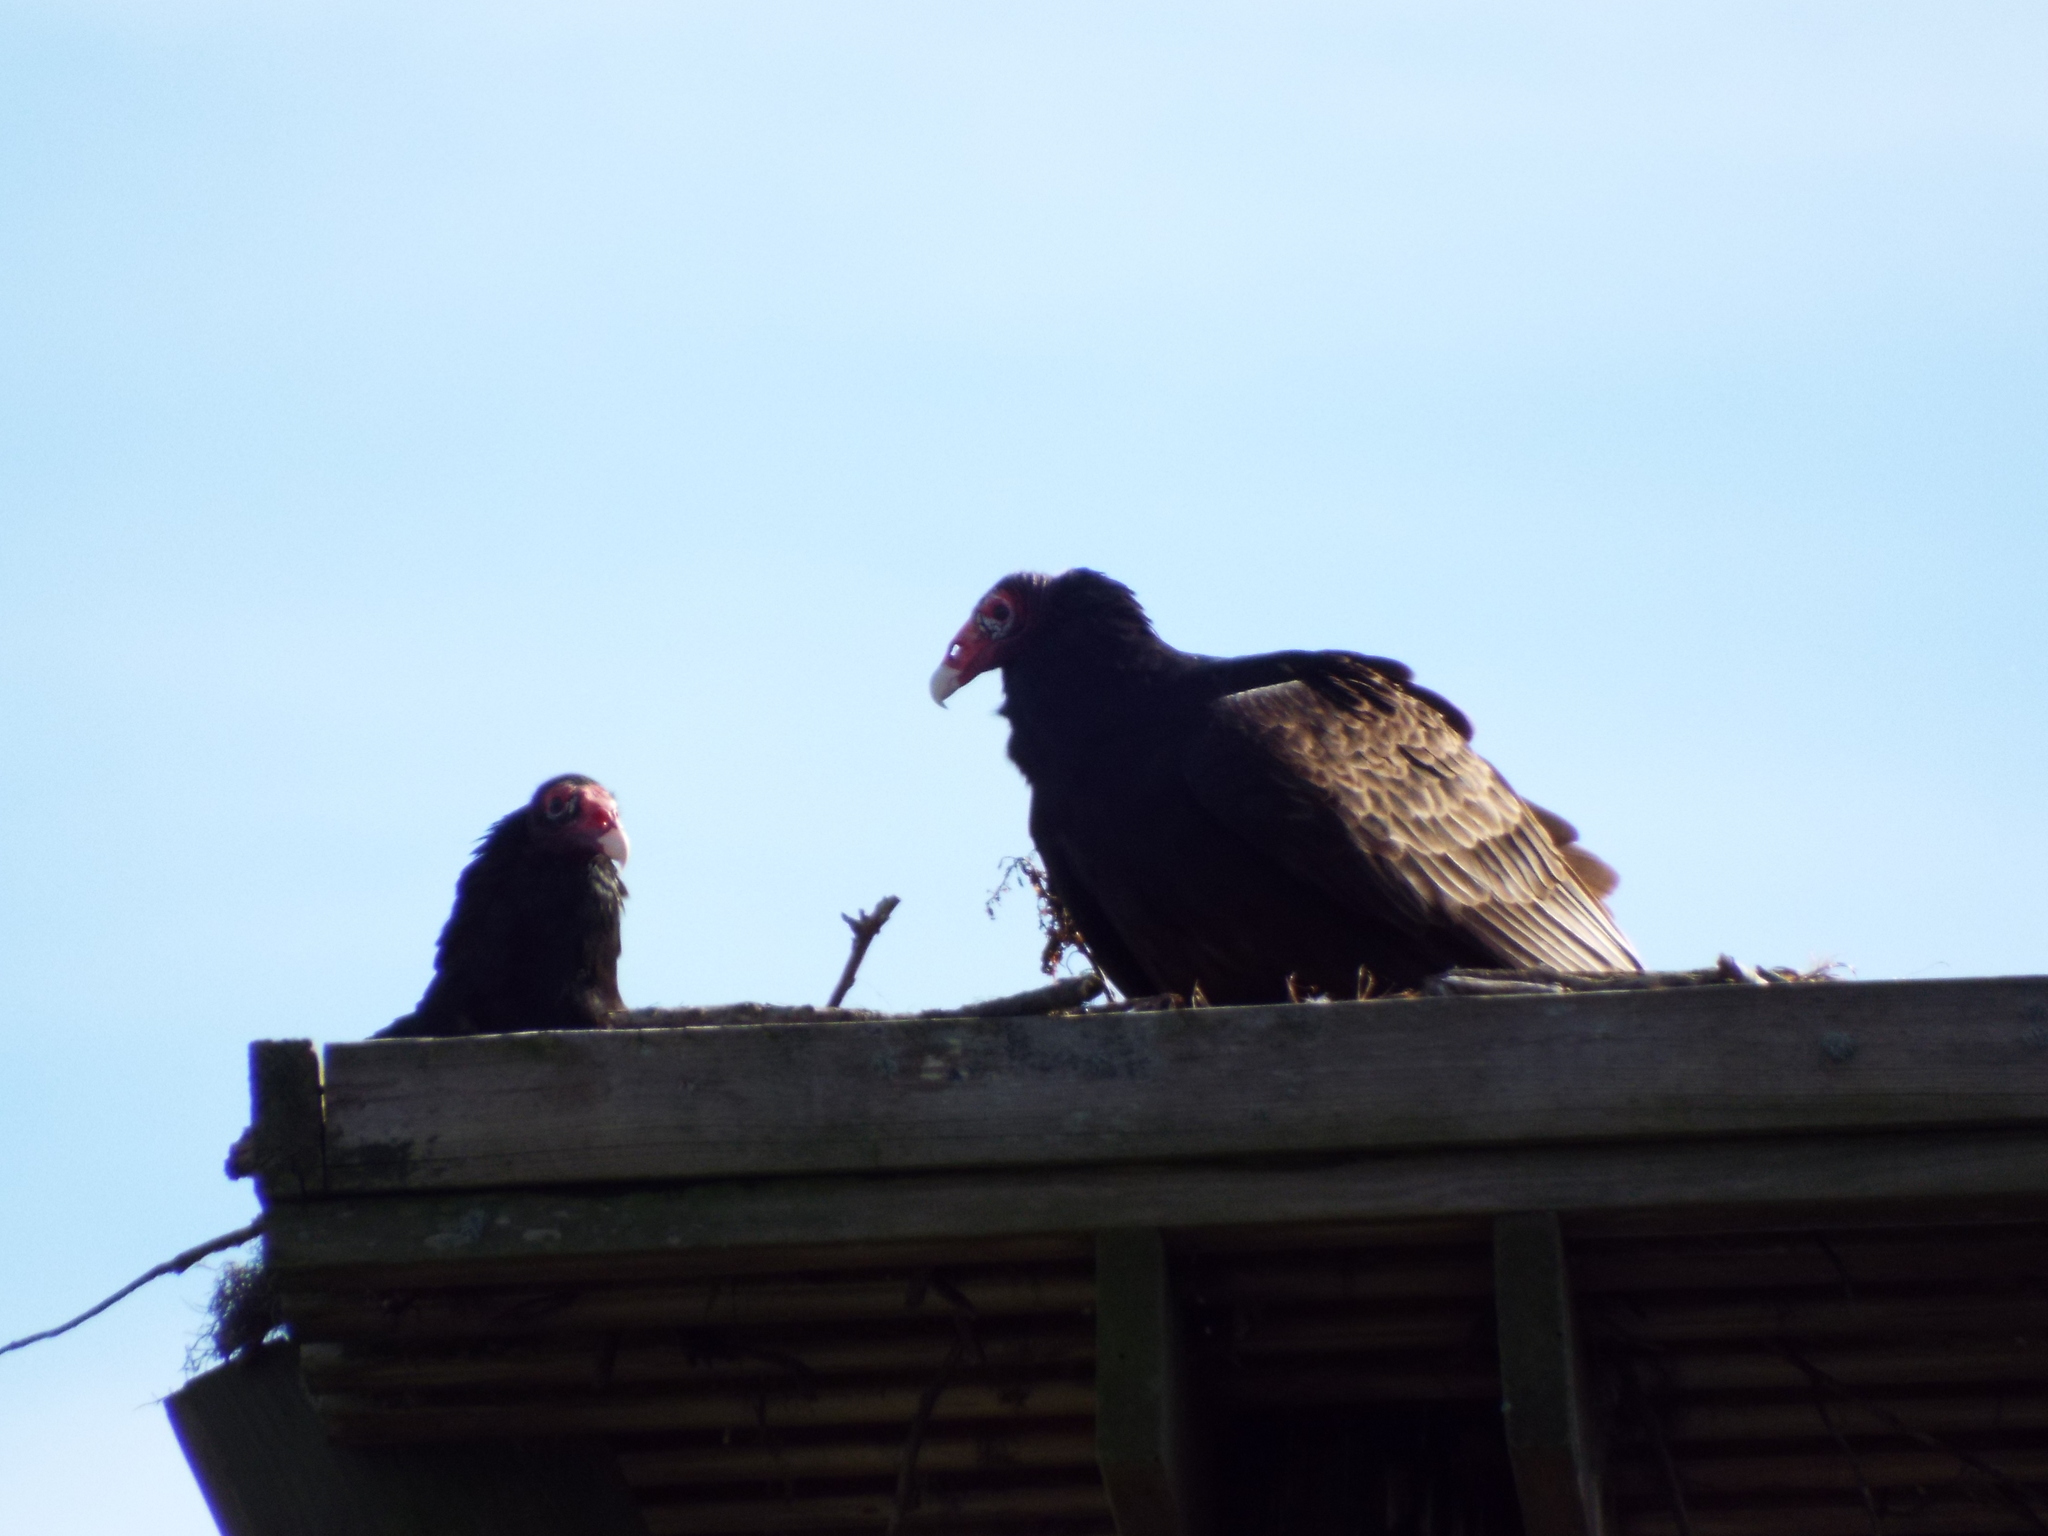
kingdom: Animalia
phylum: Chordata
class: Aves
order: Accipitriformes
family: Cathartidae
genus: Cathartes
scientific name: Cathartes aura
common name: Turkey vulture
